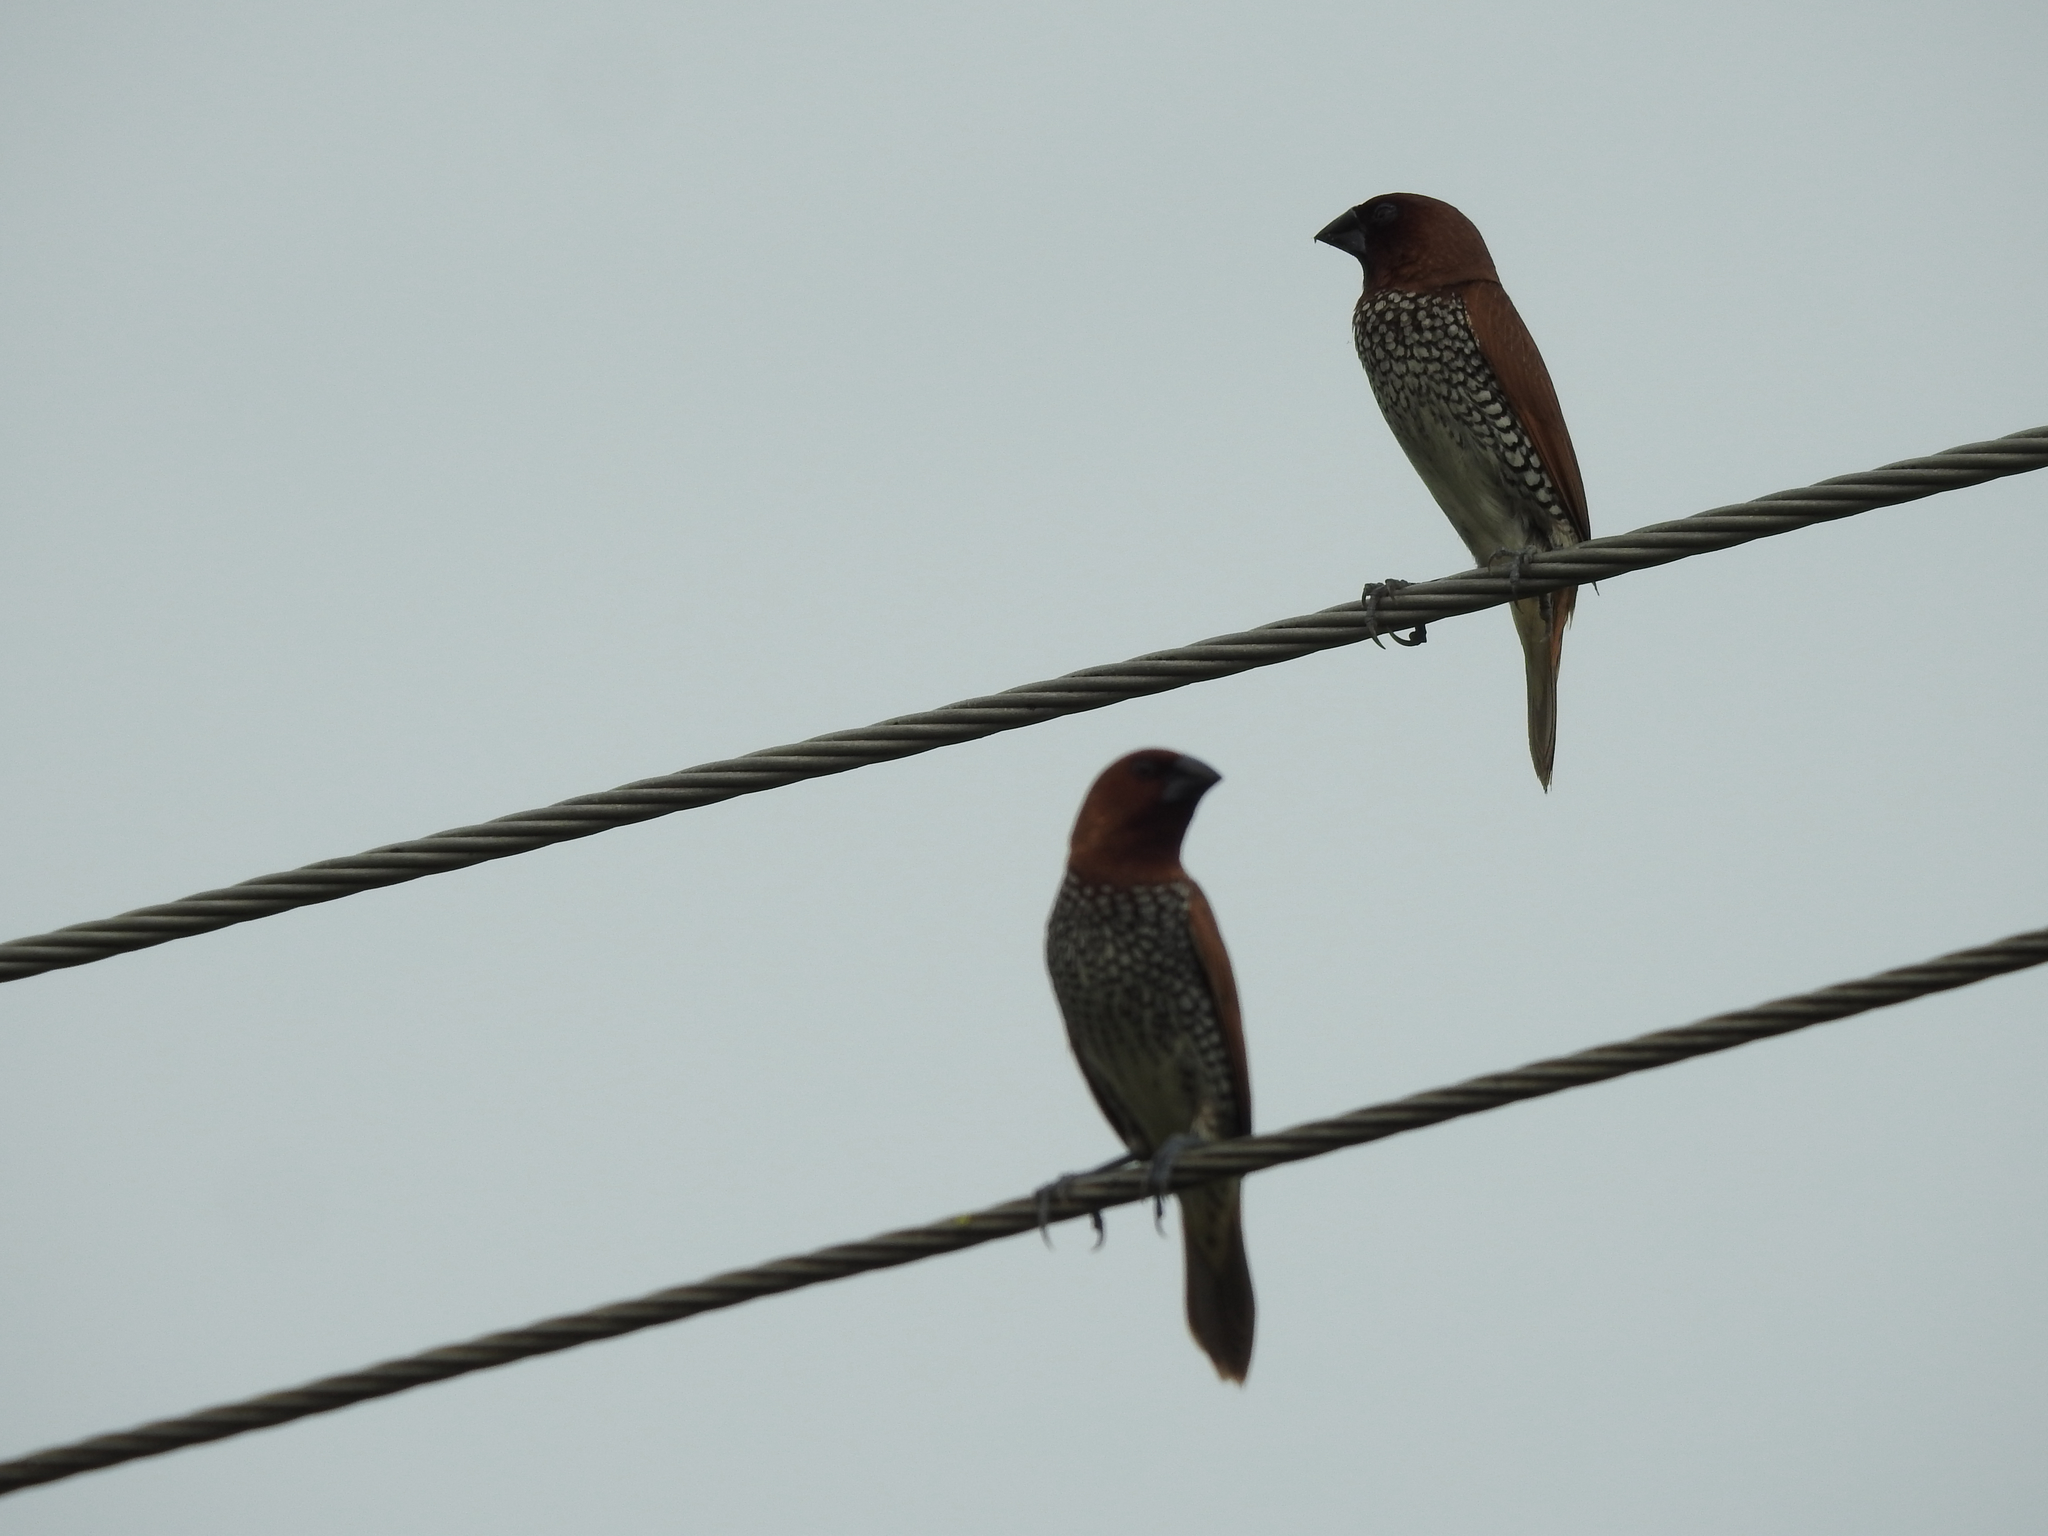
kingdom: Animalia
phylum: Chordata
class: Aves
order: Passeriformes
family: Estrildidae
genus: Lonchura
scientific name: Lonchura punctulata
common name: Scaly-breasted munia
